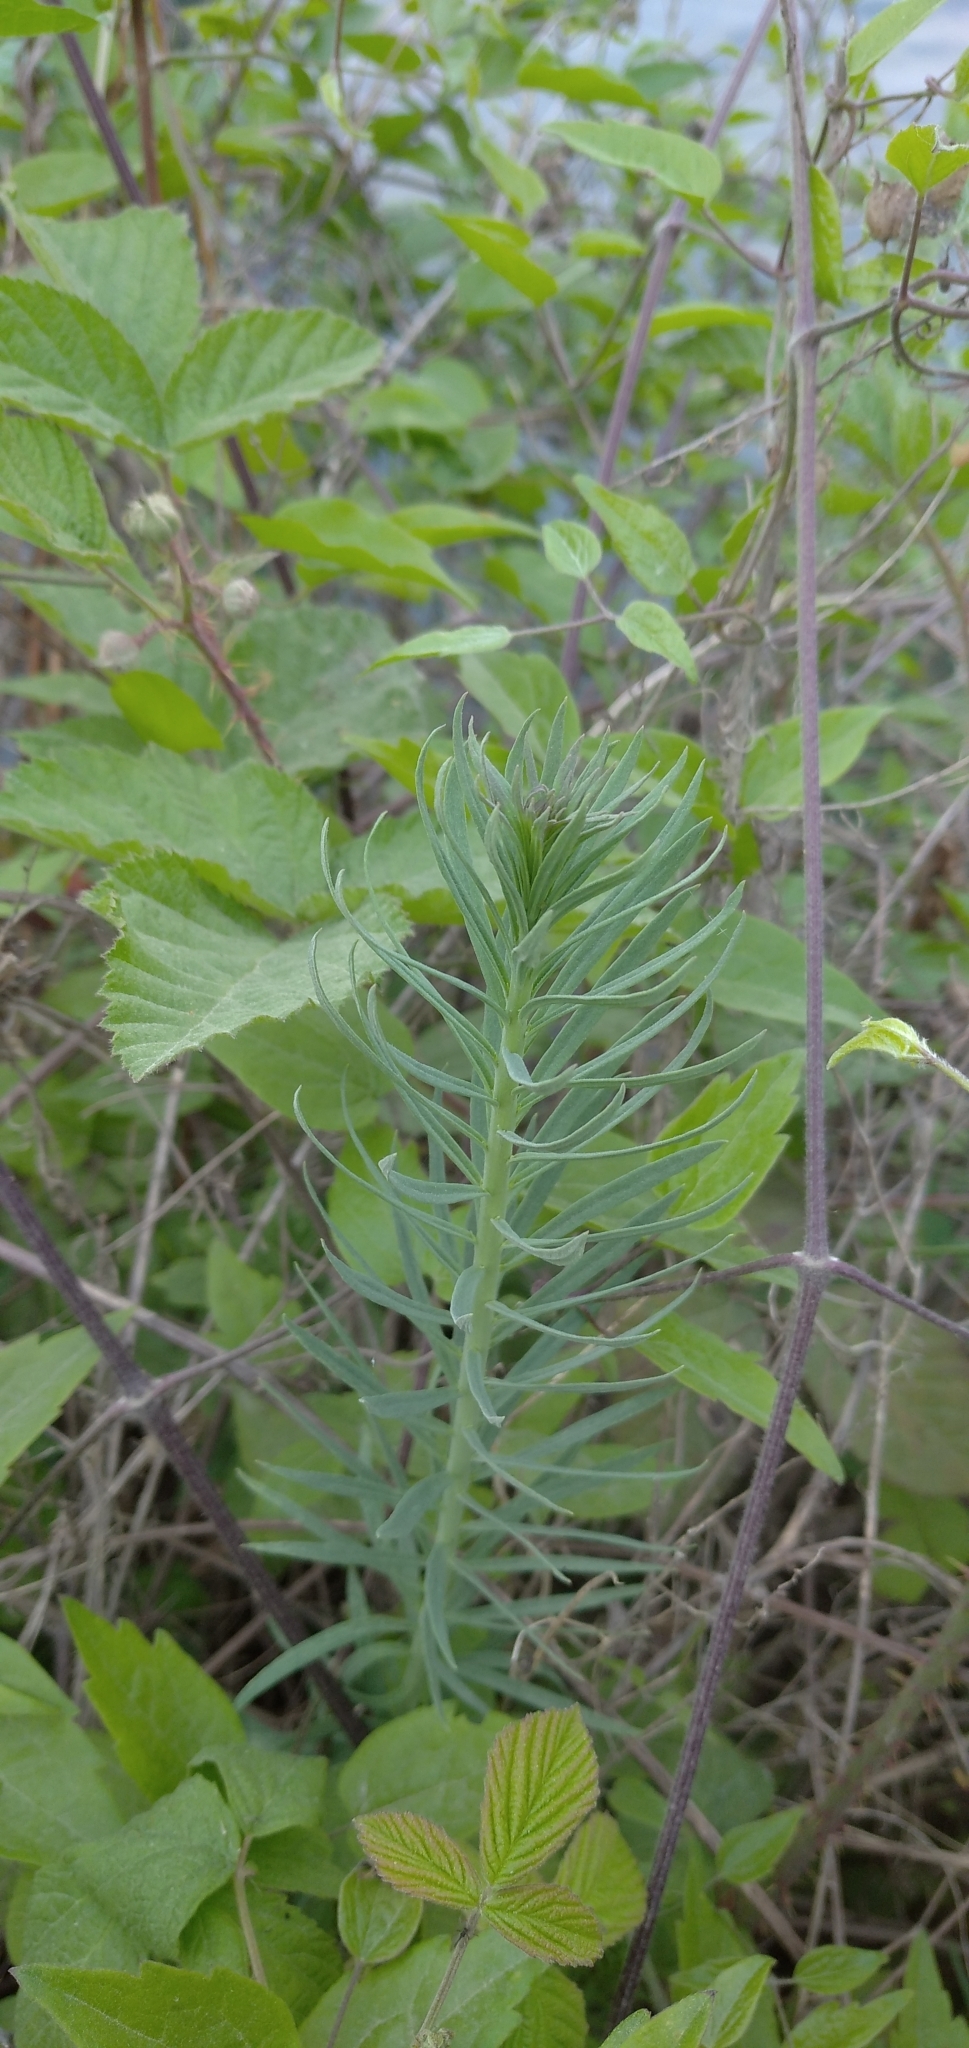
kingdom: Plantae
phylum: Tracheophyta
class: Magnoliopsida
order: Malpighiales
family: Euphorbiaceae
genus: Euphorbia
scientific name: Euphorbia cyparissias
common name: Cypress spurge
